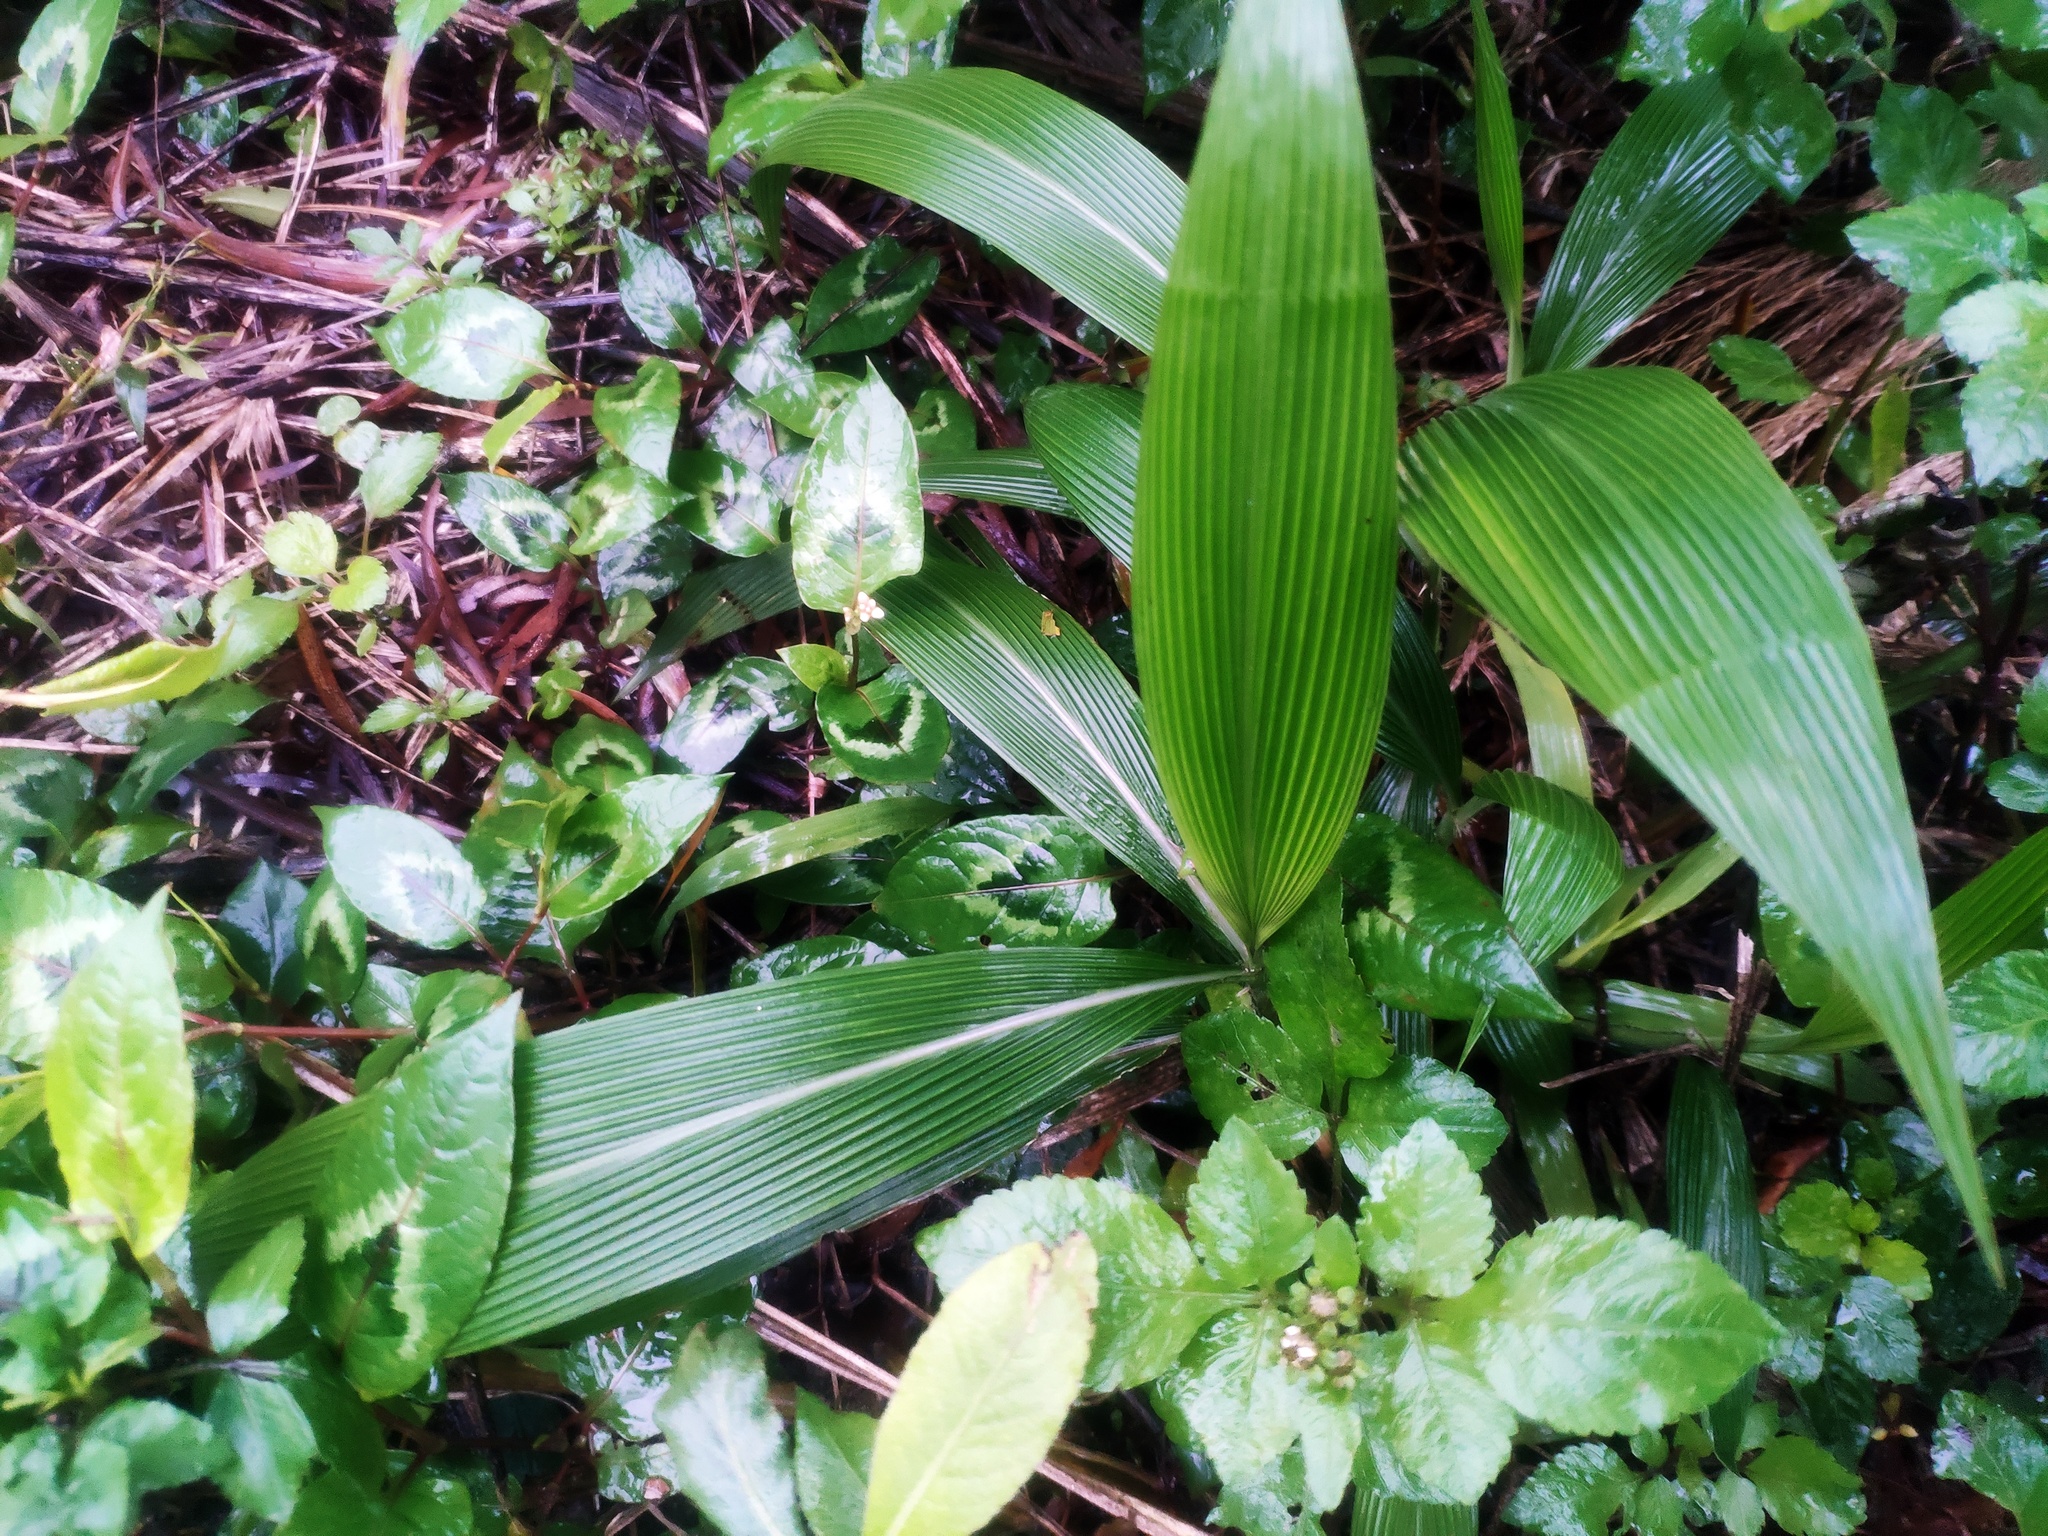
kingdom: Plantae
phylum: Tracheophyta
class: Liliopsida
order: Poales
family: Poaceae
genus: Setaria
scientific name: Setaria palmifolia
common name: Broadleaved bristlegrass
